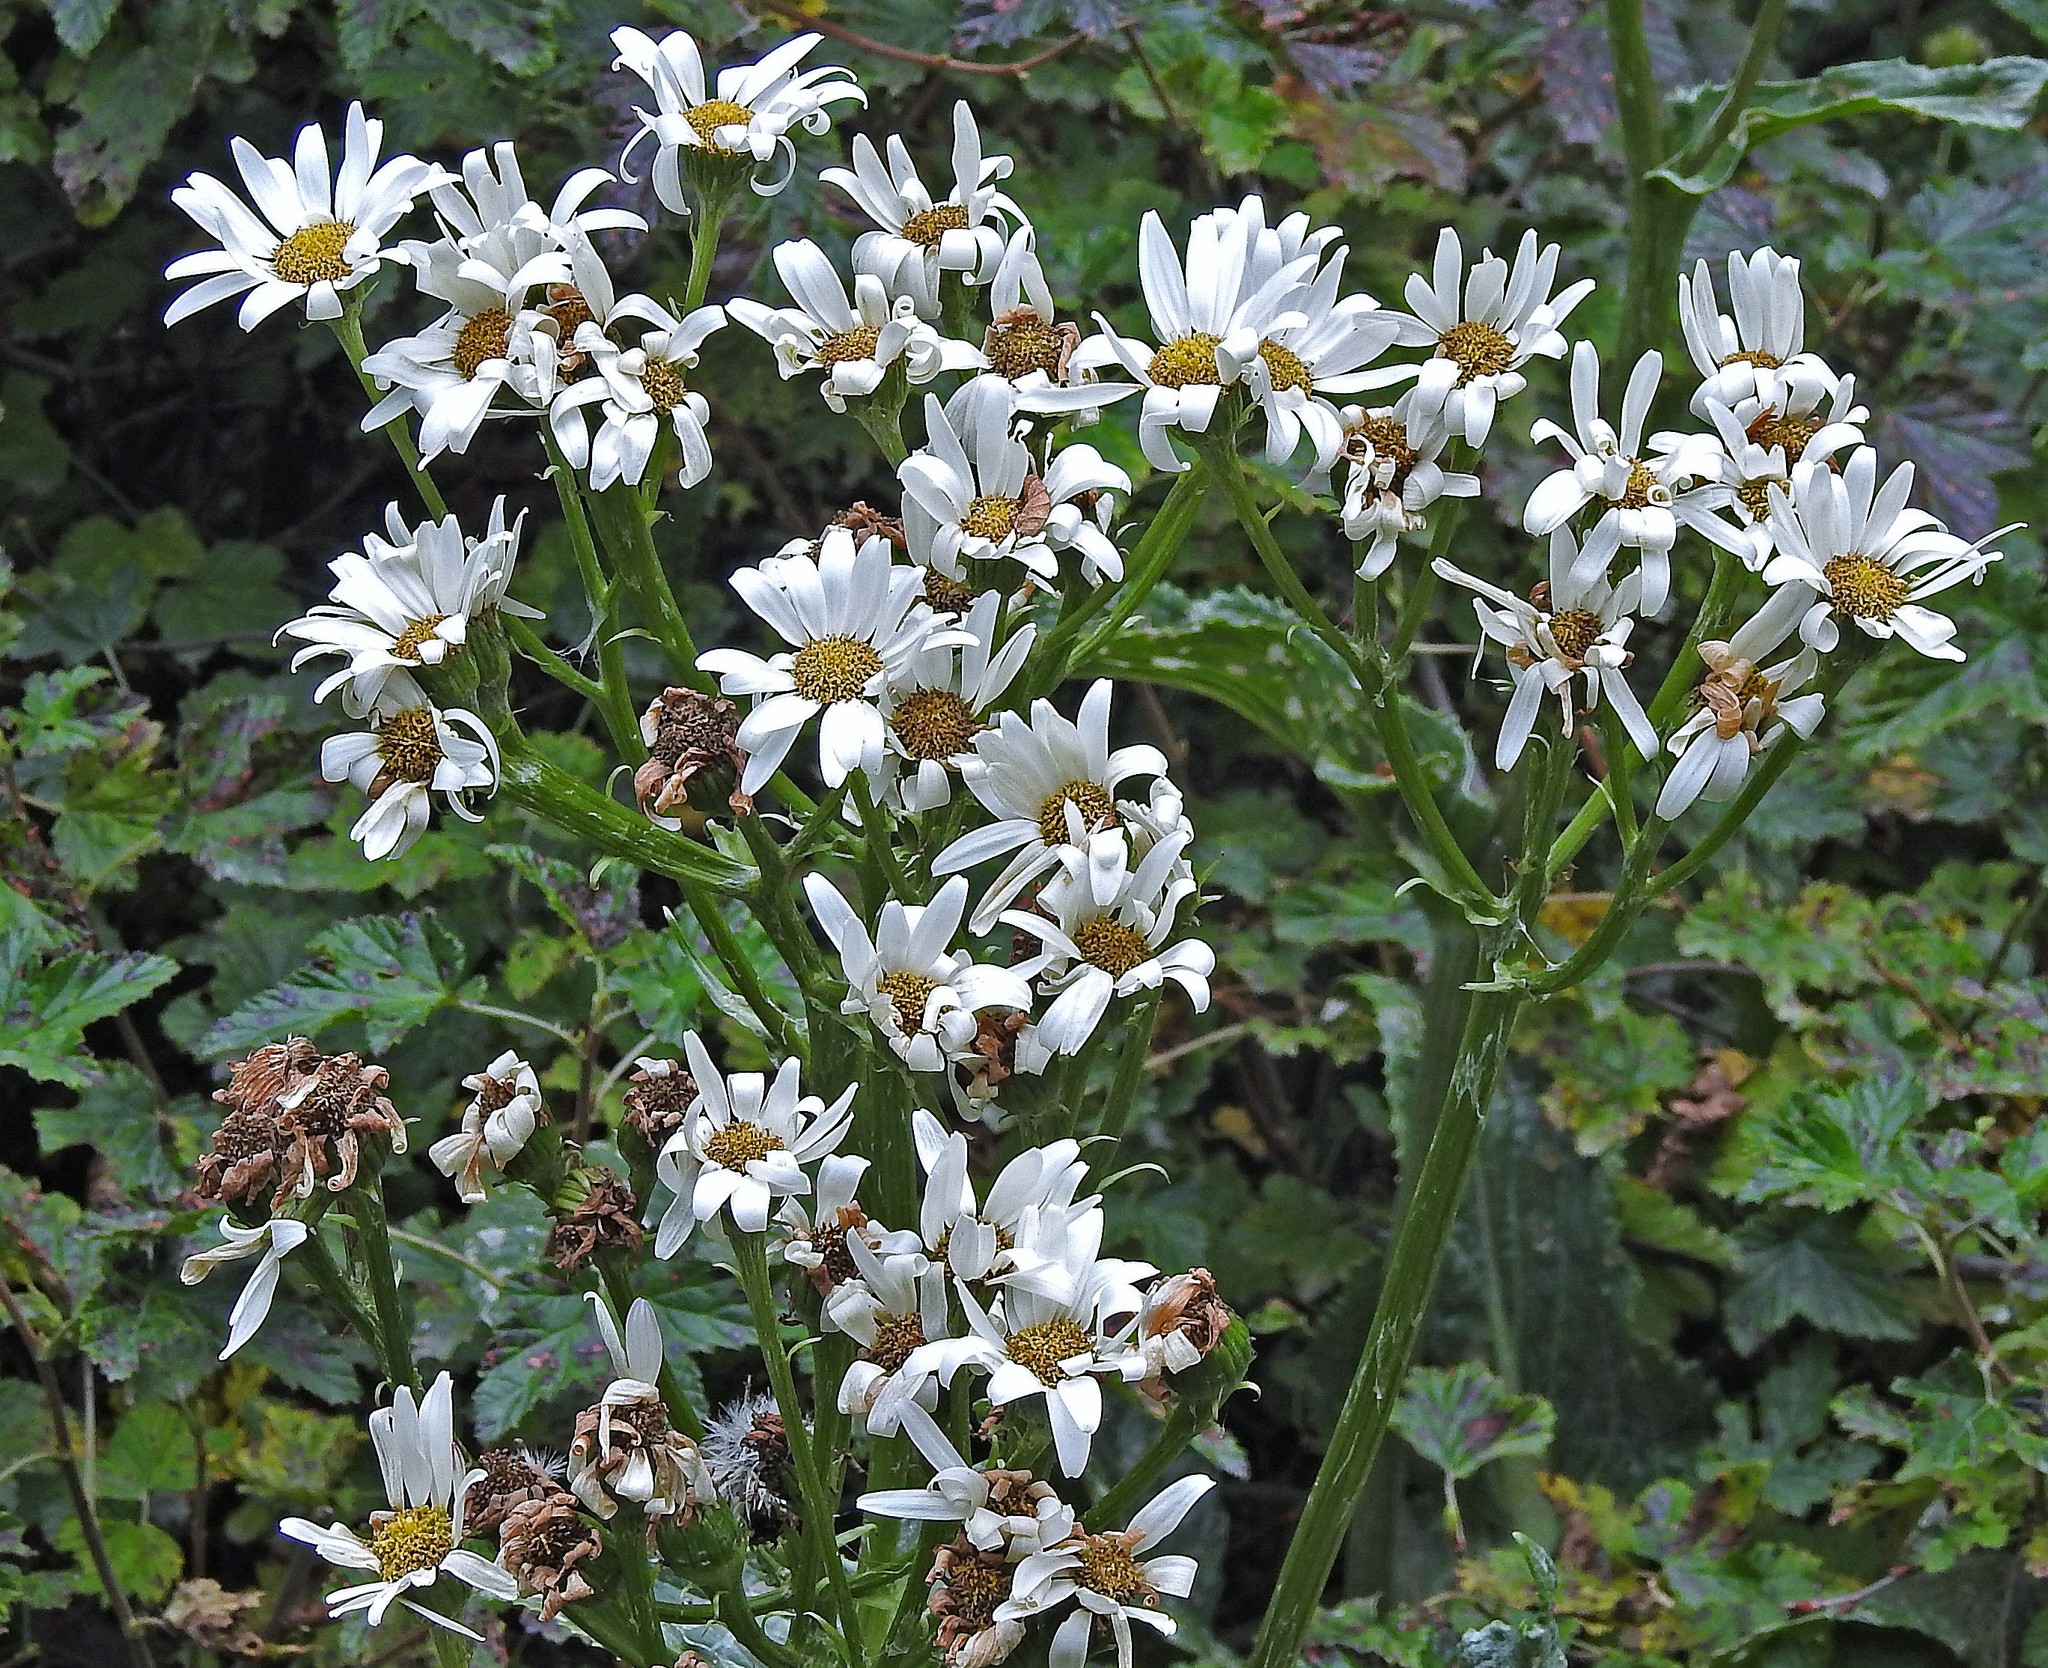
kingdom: Plantae
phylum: Tracheophyta
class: Magnoliopsida
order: Asterales
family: Asteraceae
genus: Senecio
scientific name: Senecio smithii
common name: Magellan ragwort
